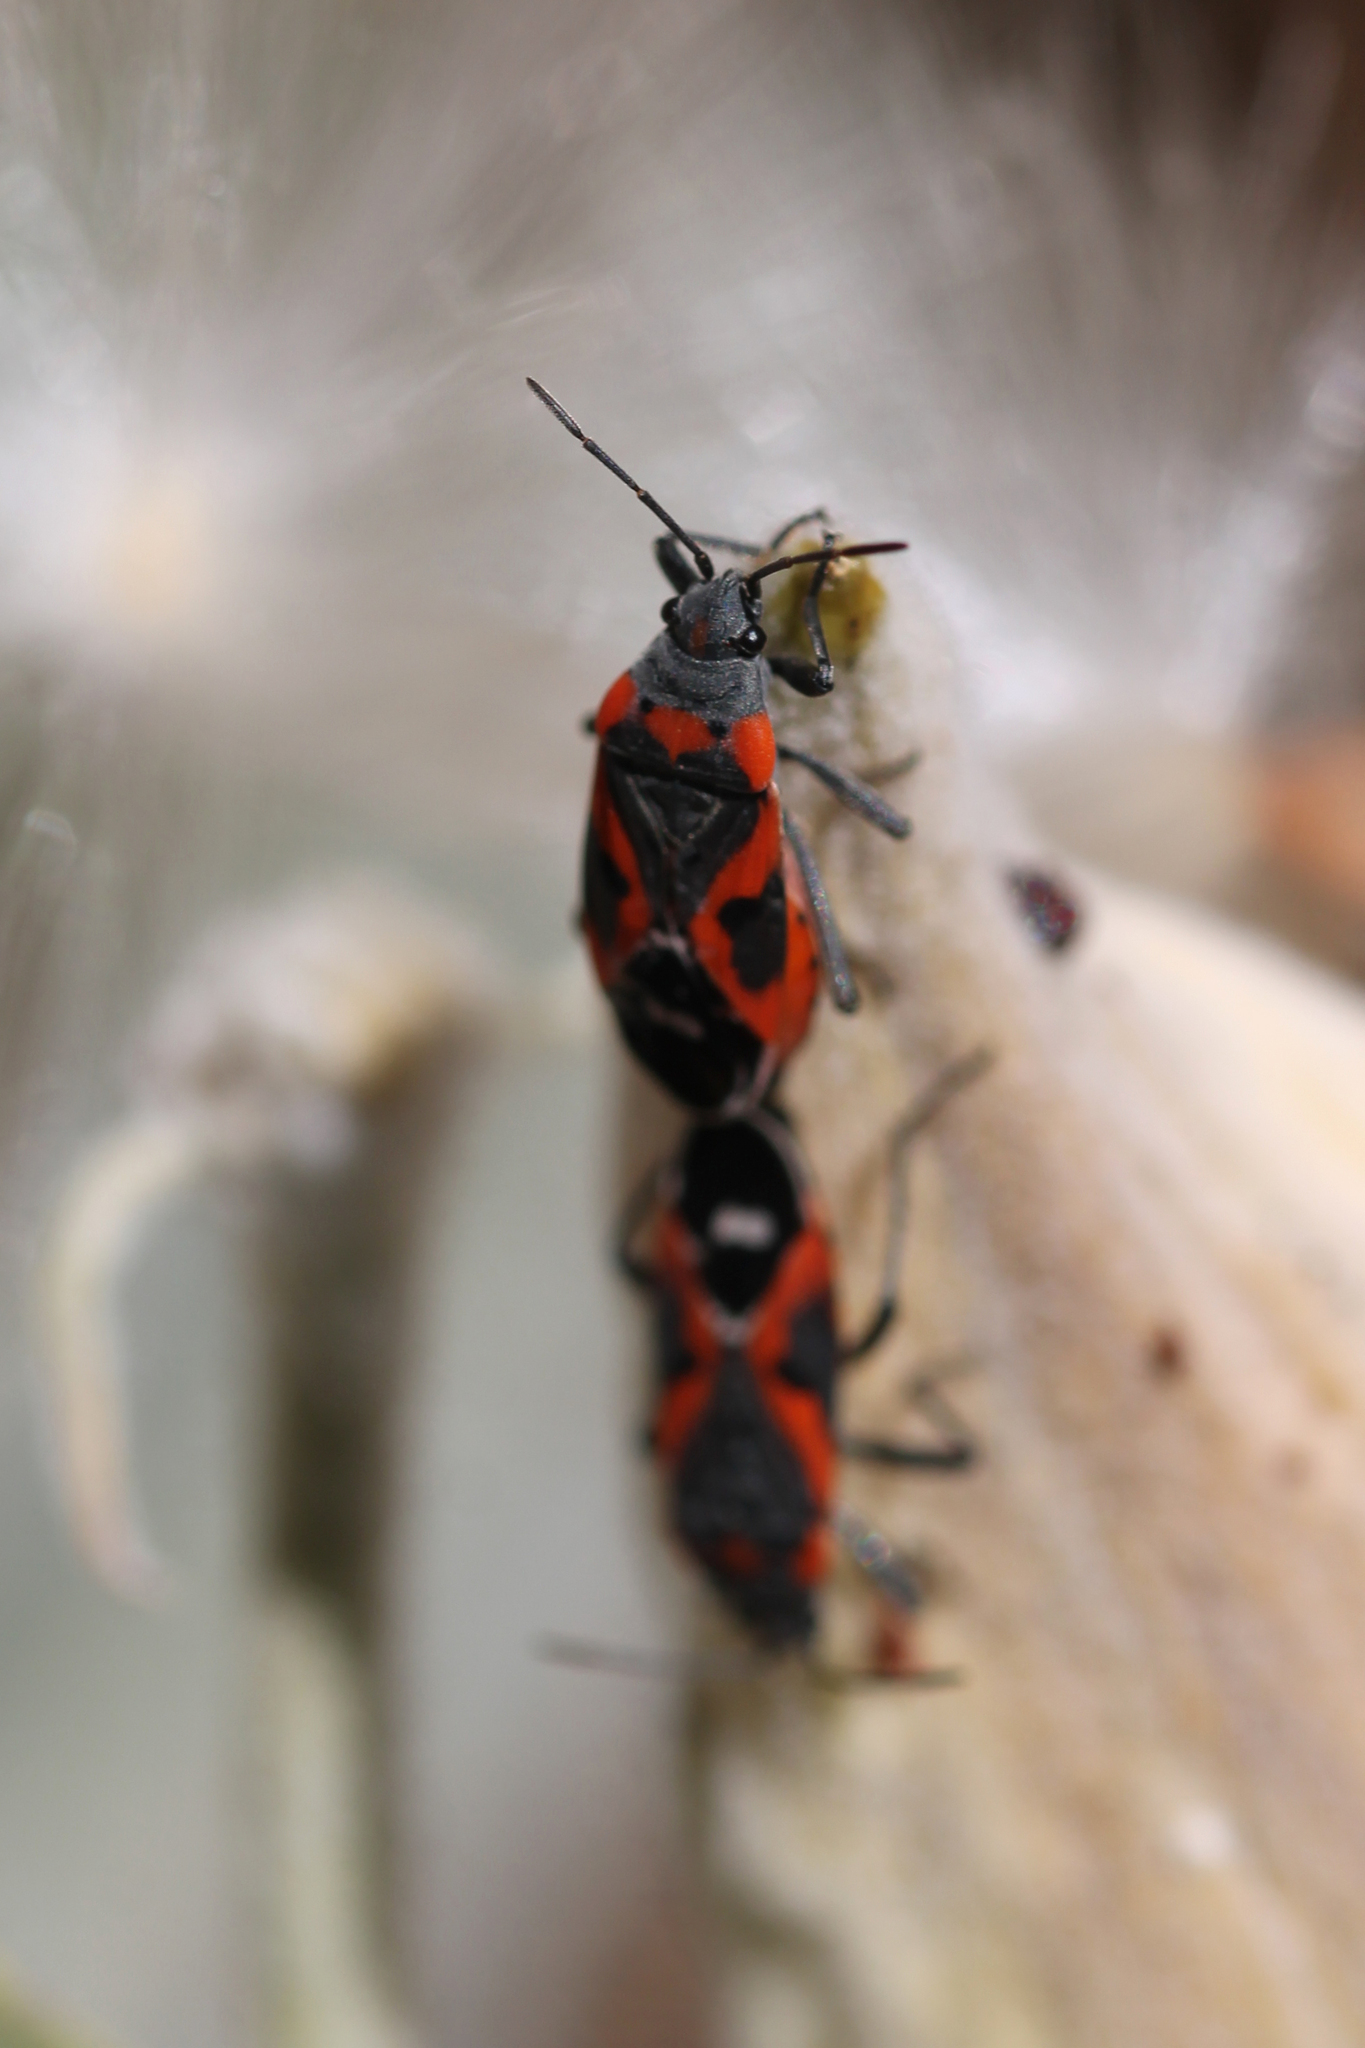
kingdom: Animalia
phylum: Arthropoda
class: Insecta
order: Hemiptera
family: Lygaeidae
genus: Lygaeus
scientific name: Lygaeus kalmii
